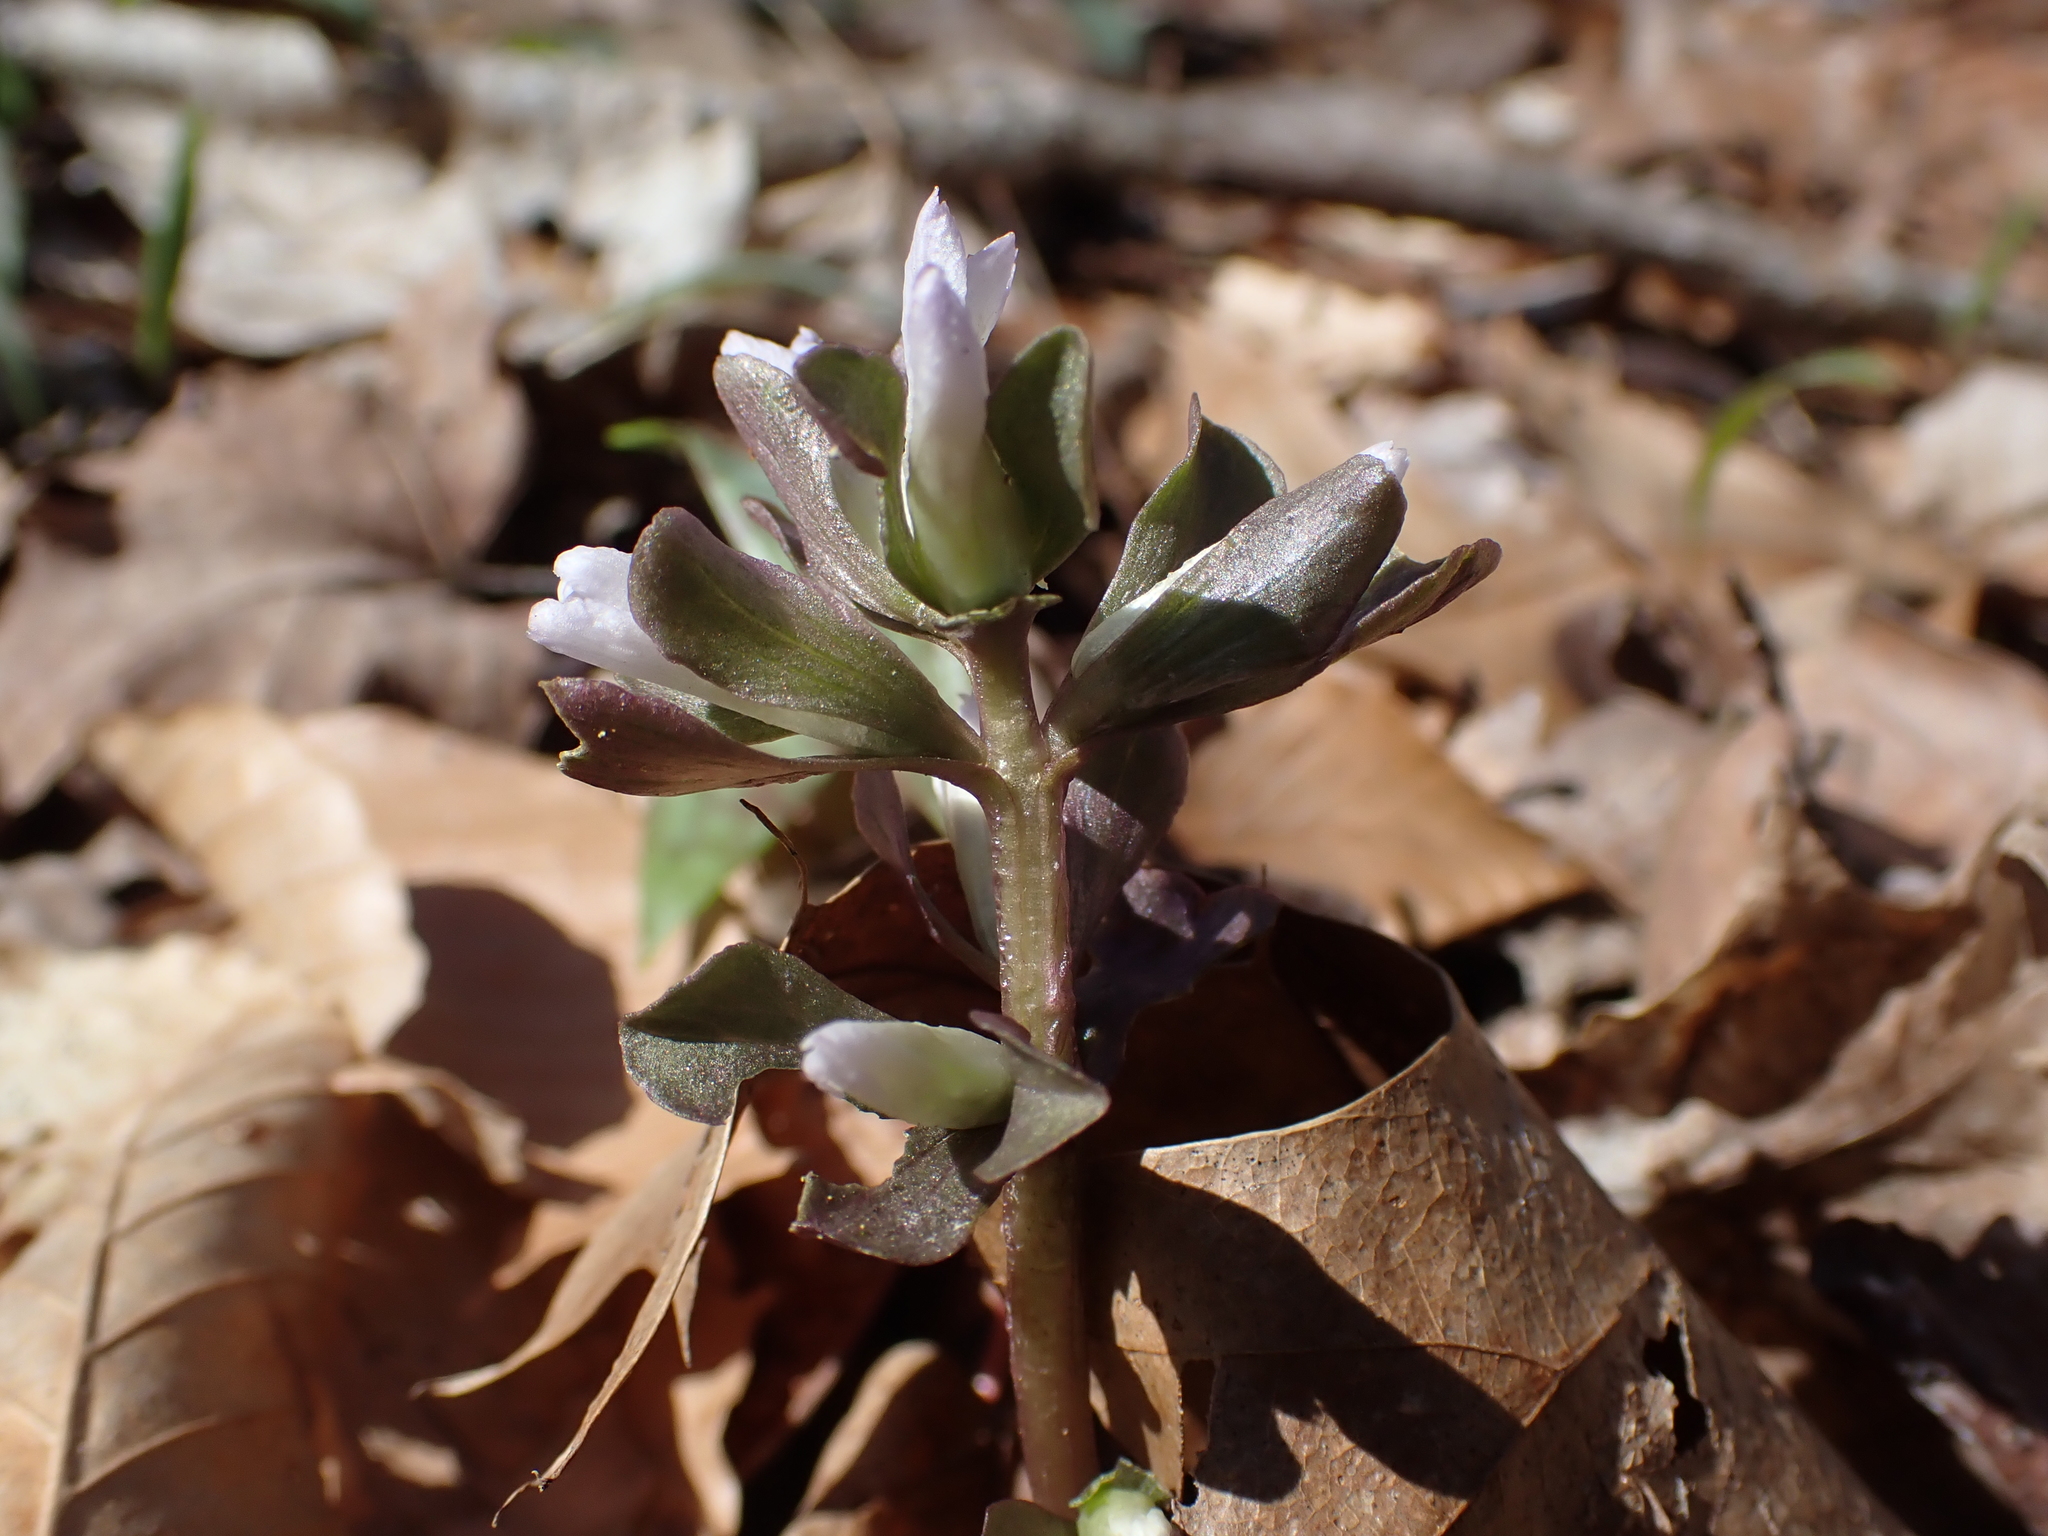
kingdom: Plantae
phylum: Tracheophyta
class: Magnoliopsida
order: Gentianales
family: Gentianaceae
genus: Obolaria
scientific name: Obolaria virginica
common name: Pennywort
